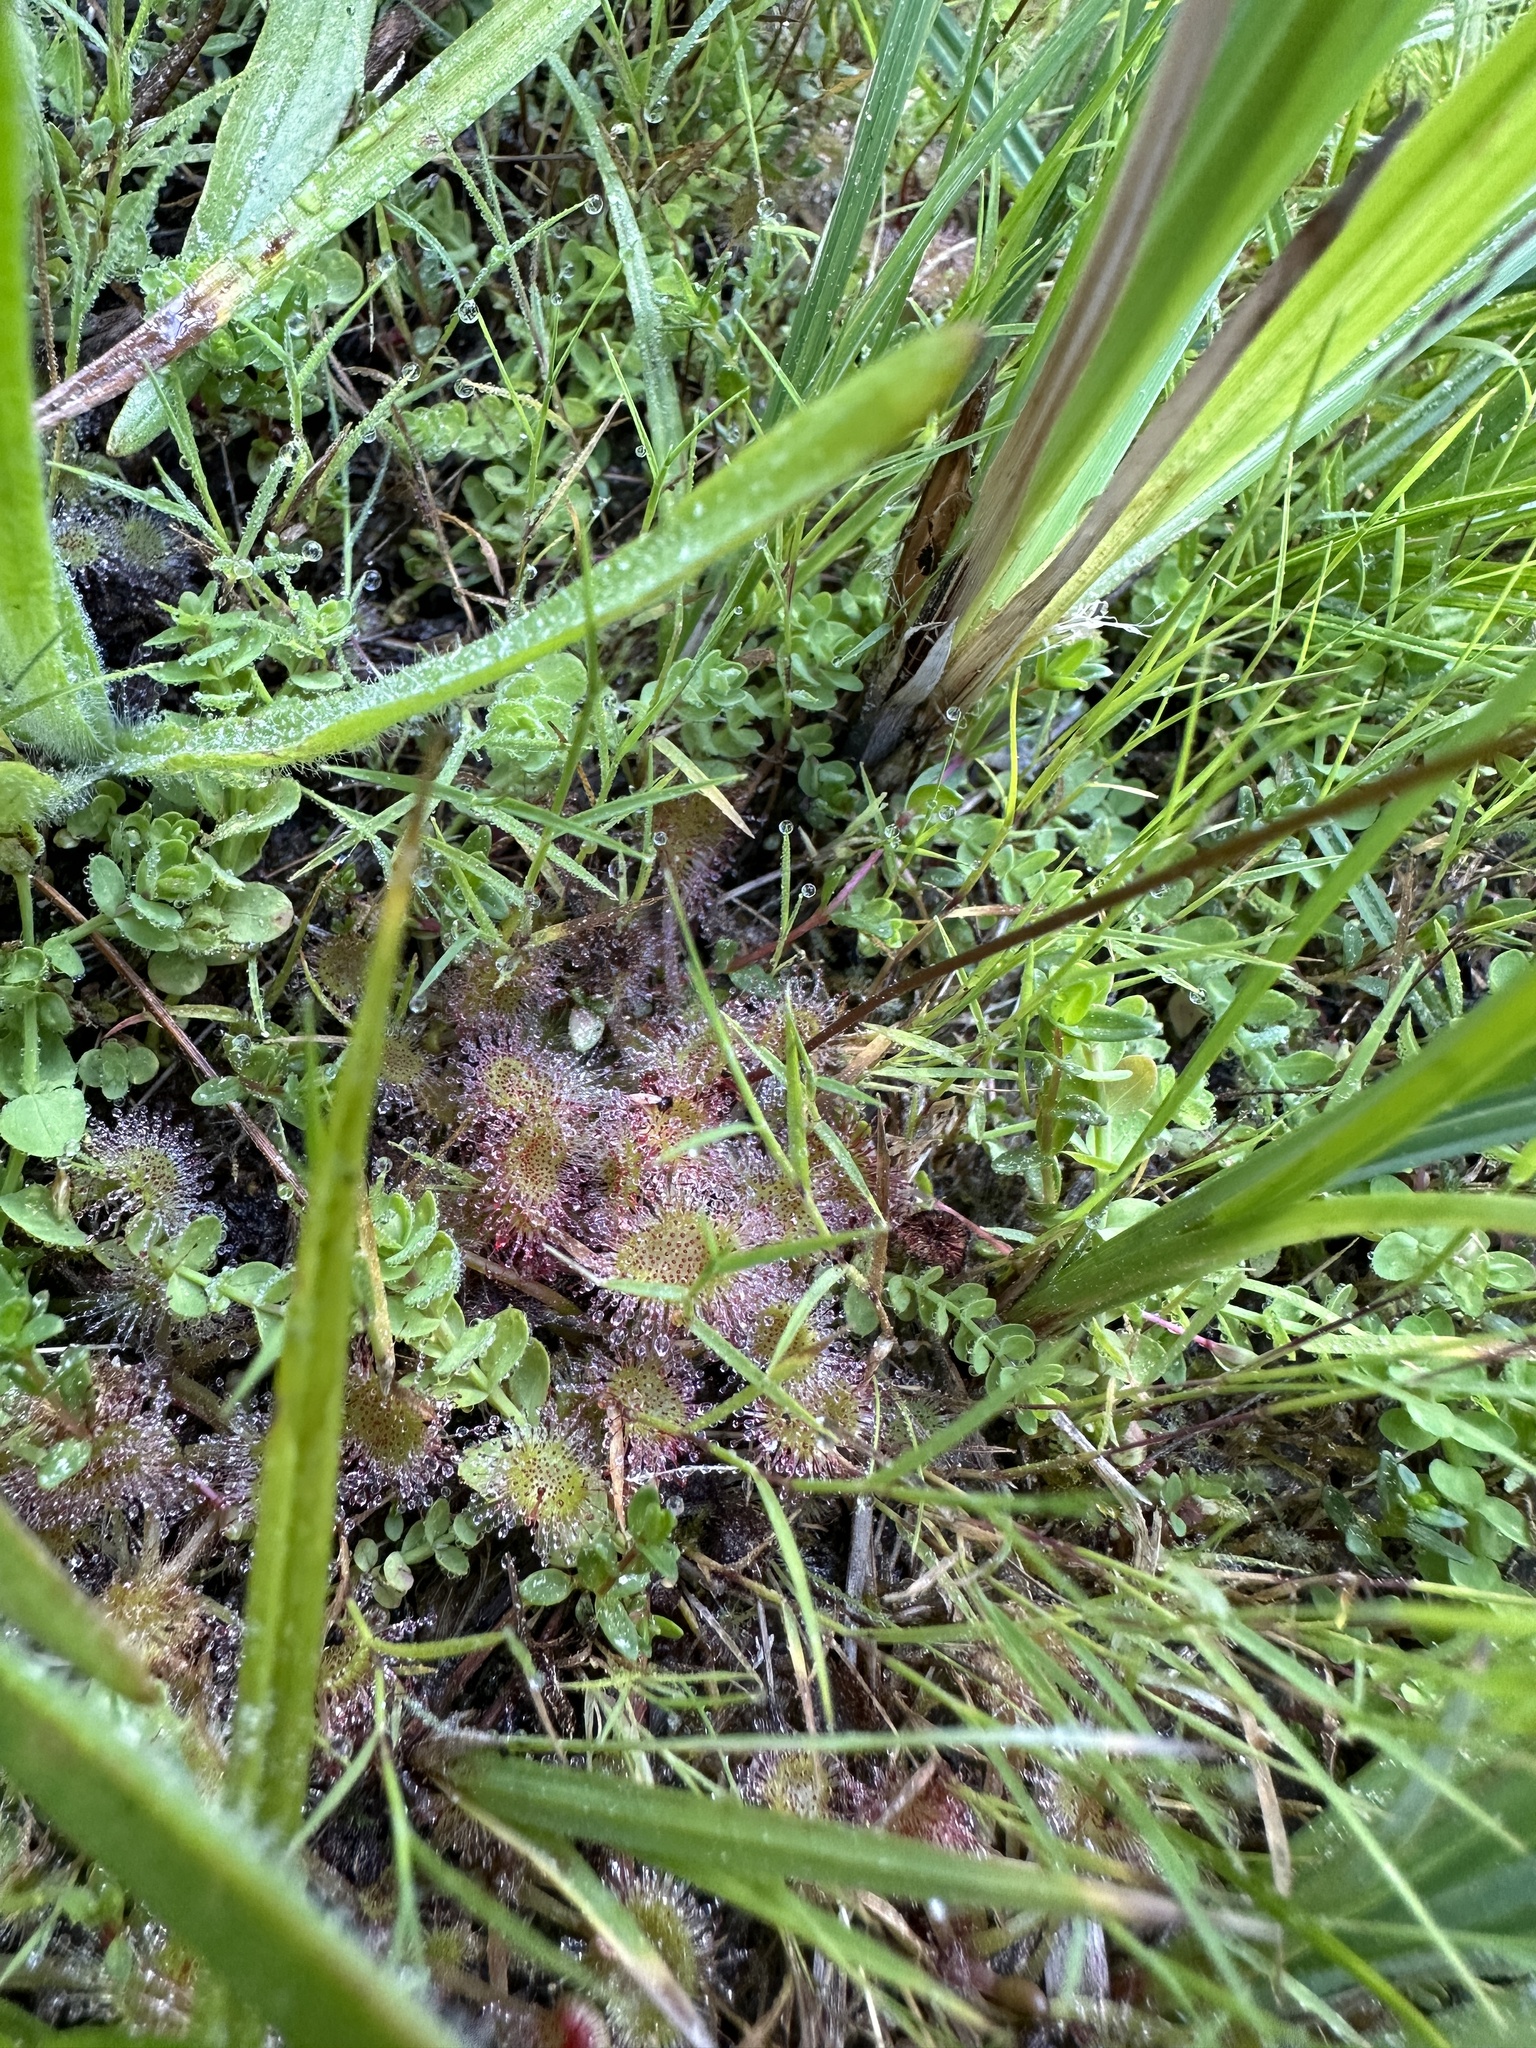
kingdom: Plantae
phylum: Tracheophyta
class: Magnoliopsida
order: Caryophyllales
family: Droseraceae
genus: Drosera
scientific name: Drosera rotundifolia
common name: Round-leaved sundew
